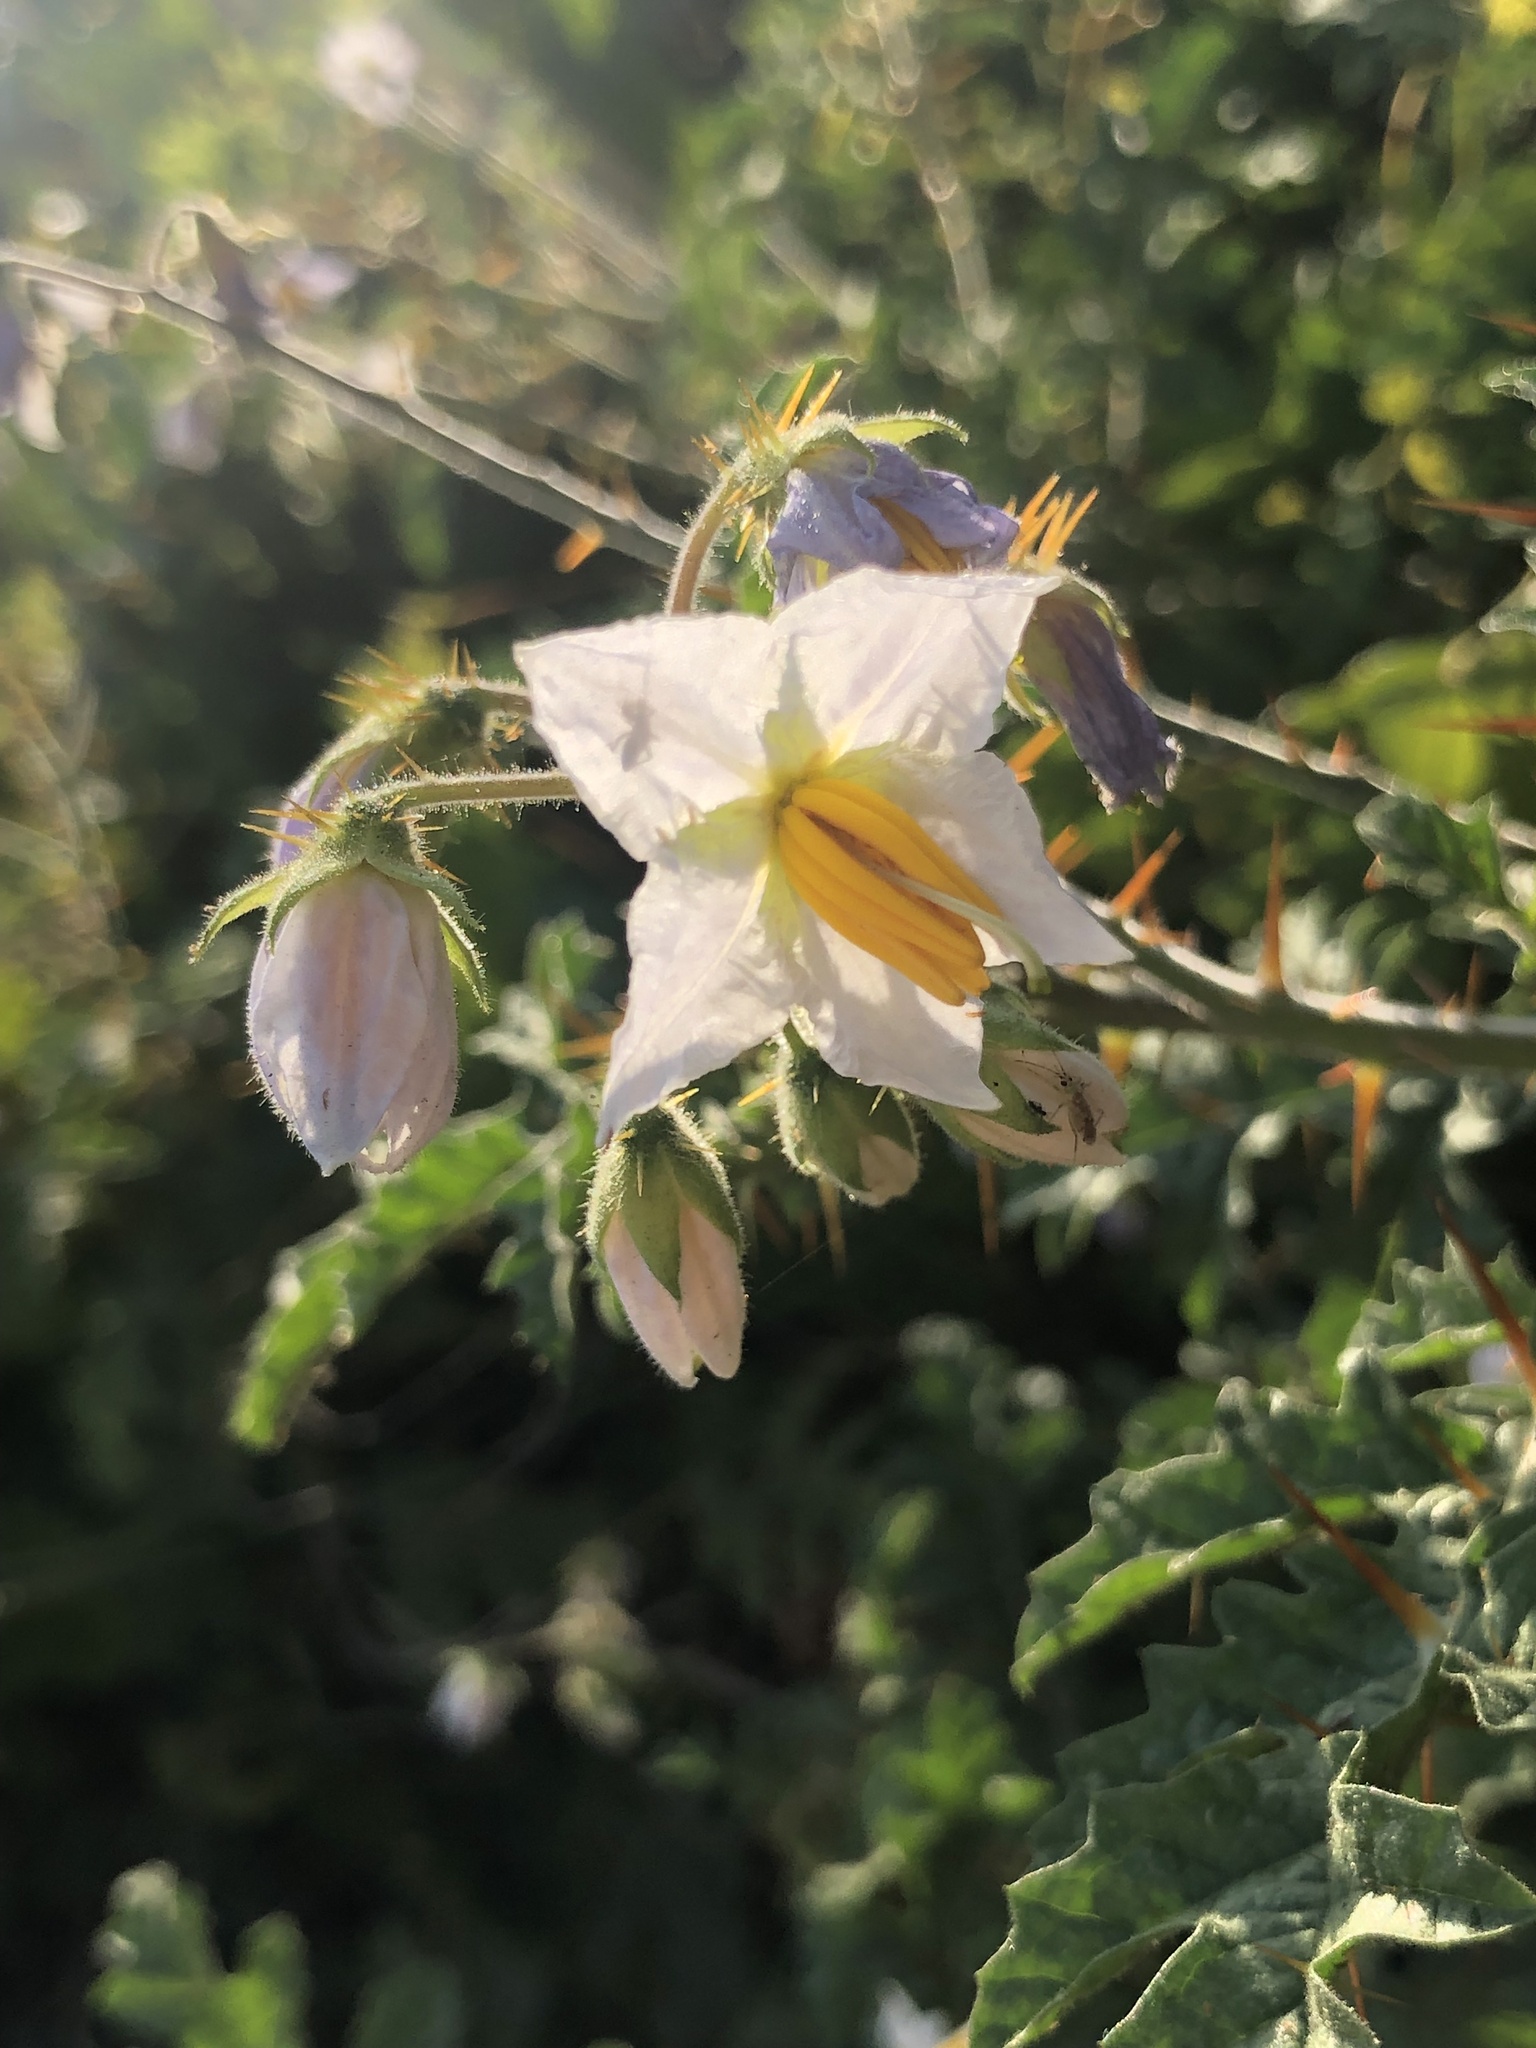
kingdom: Plantae
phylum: Tracheophyta
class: Magnoliopsida
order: Solanales
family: Solanaceae
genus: Solanum
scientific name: Solanum sisymbriifolium
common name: Red buffalo-bur
